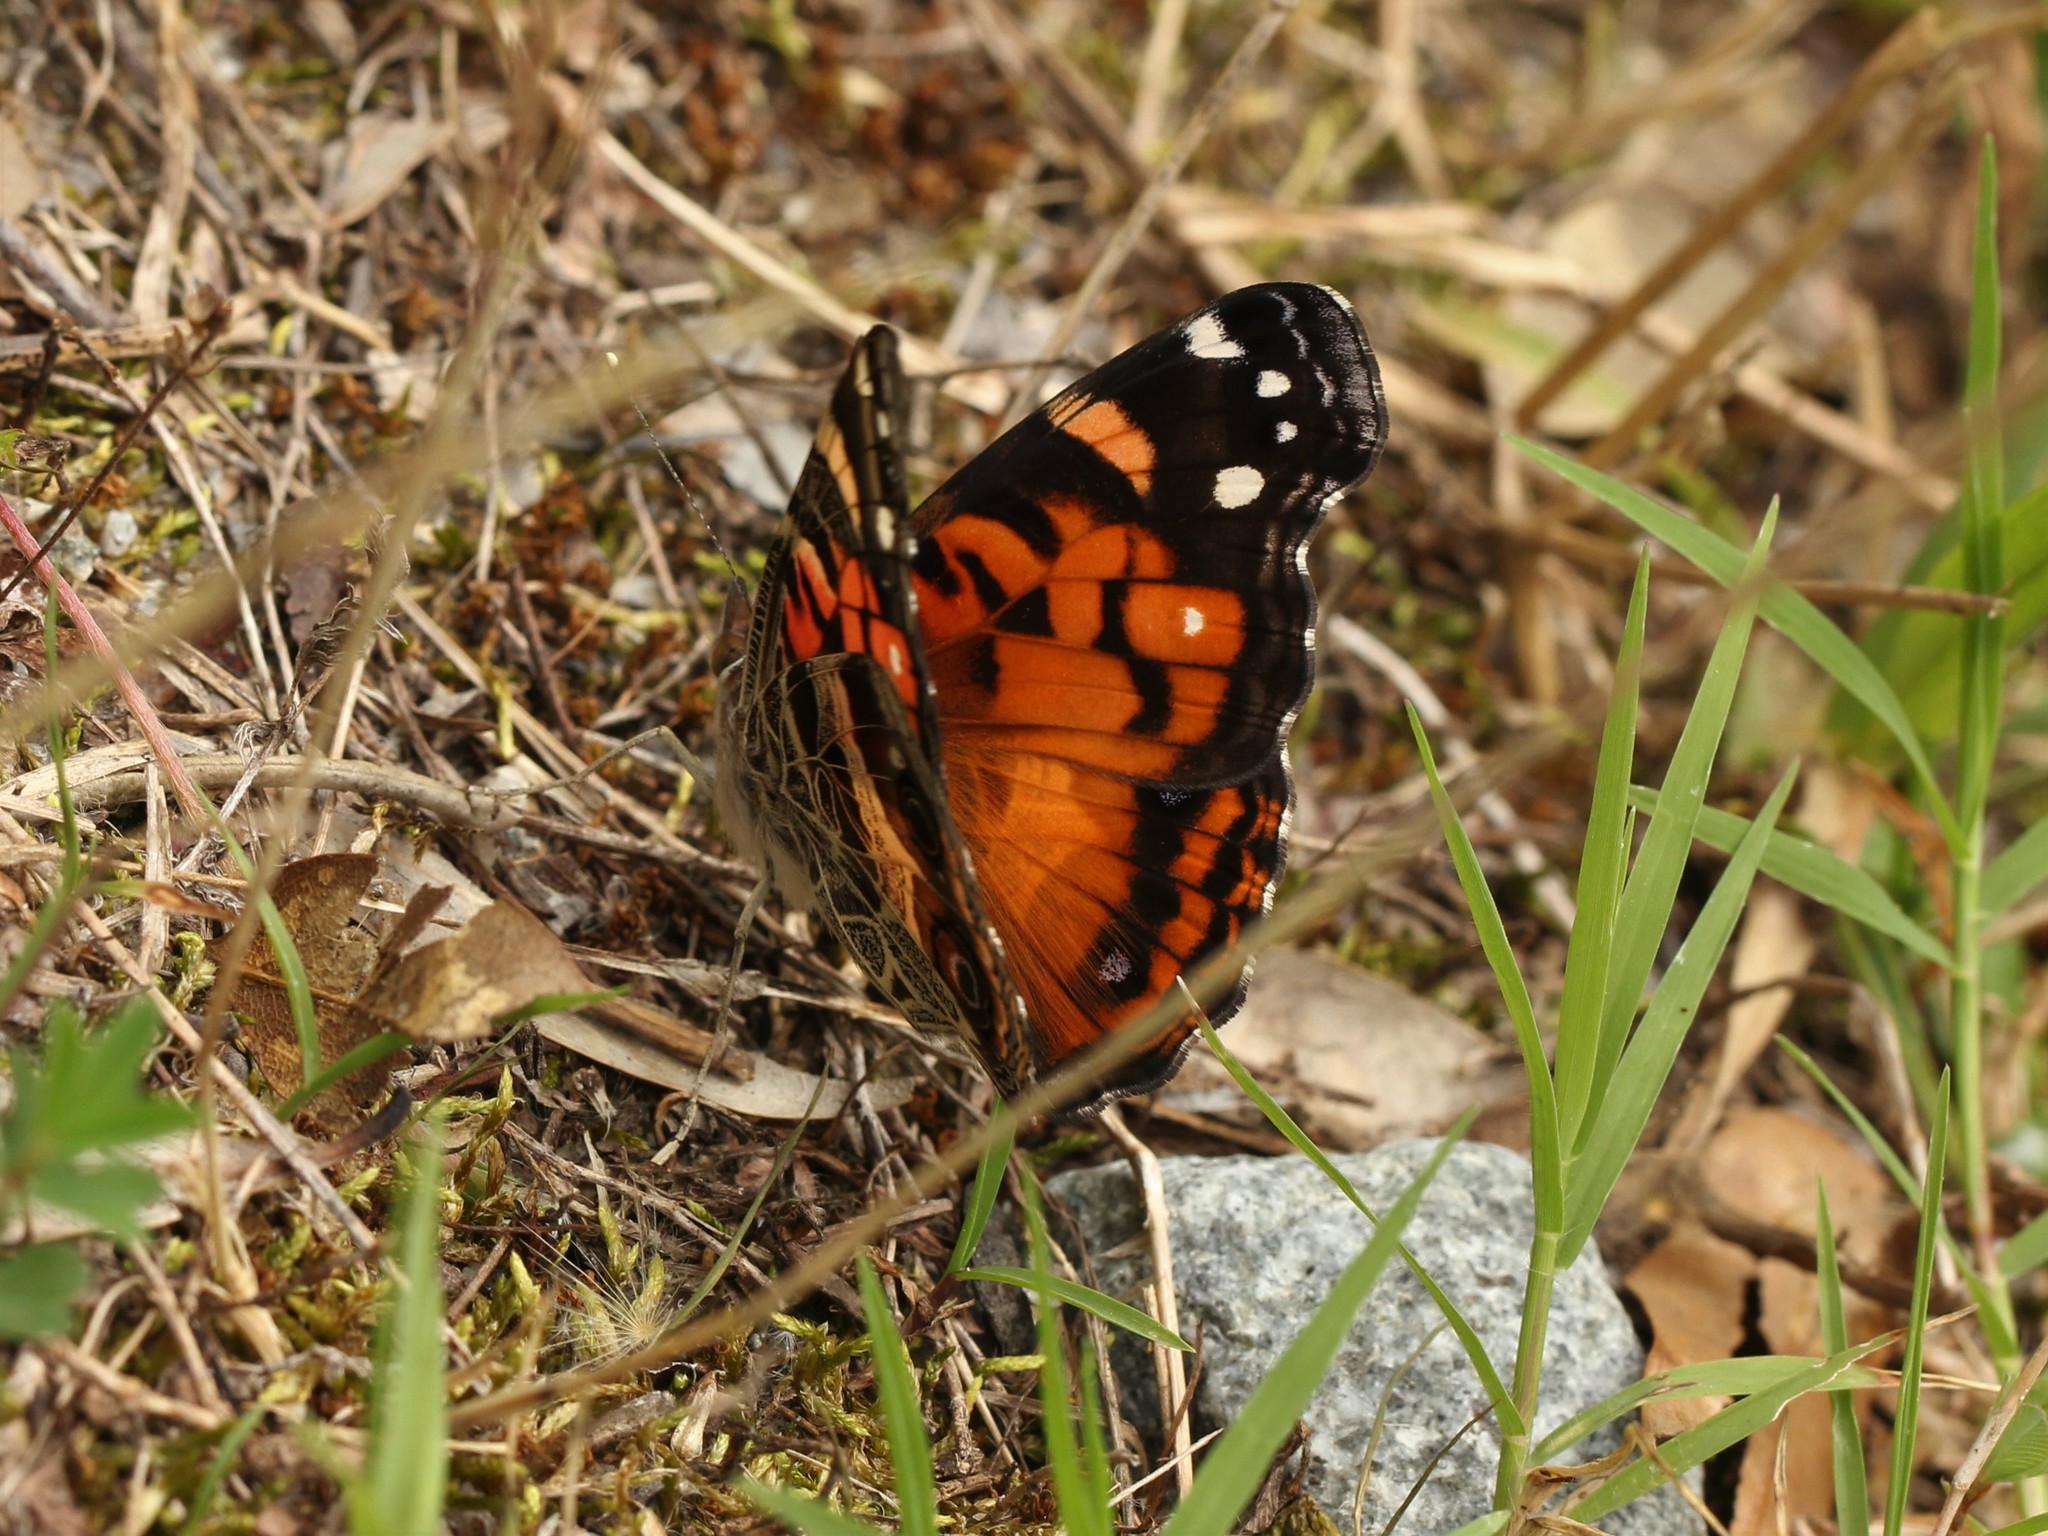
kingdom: Animalia
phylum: Arthropoda
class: Insecta
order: Lepidoptera
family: Nymphalidae
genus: Vanessa
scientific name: Vanessa virginiensis
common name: American lady
